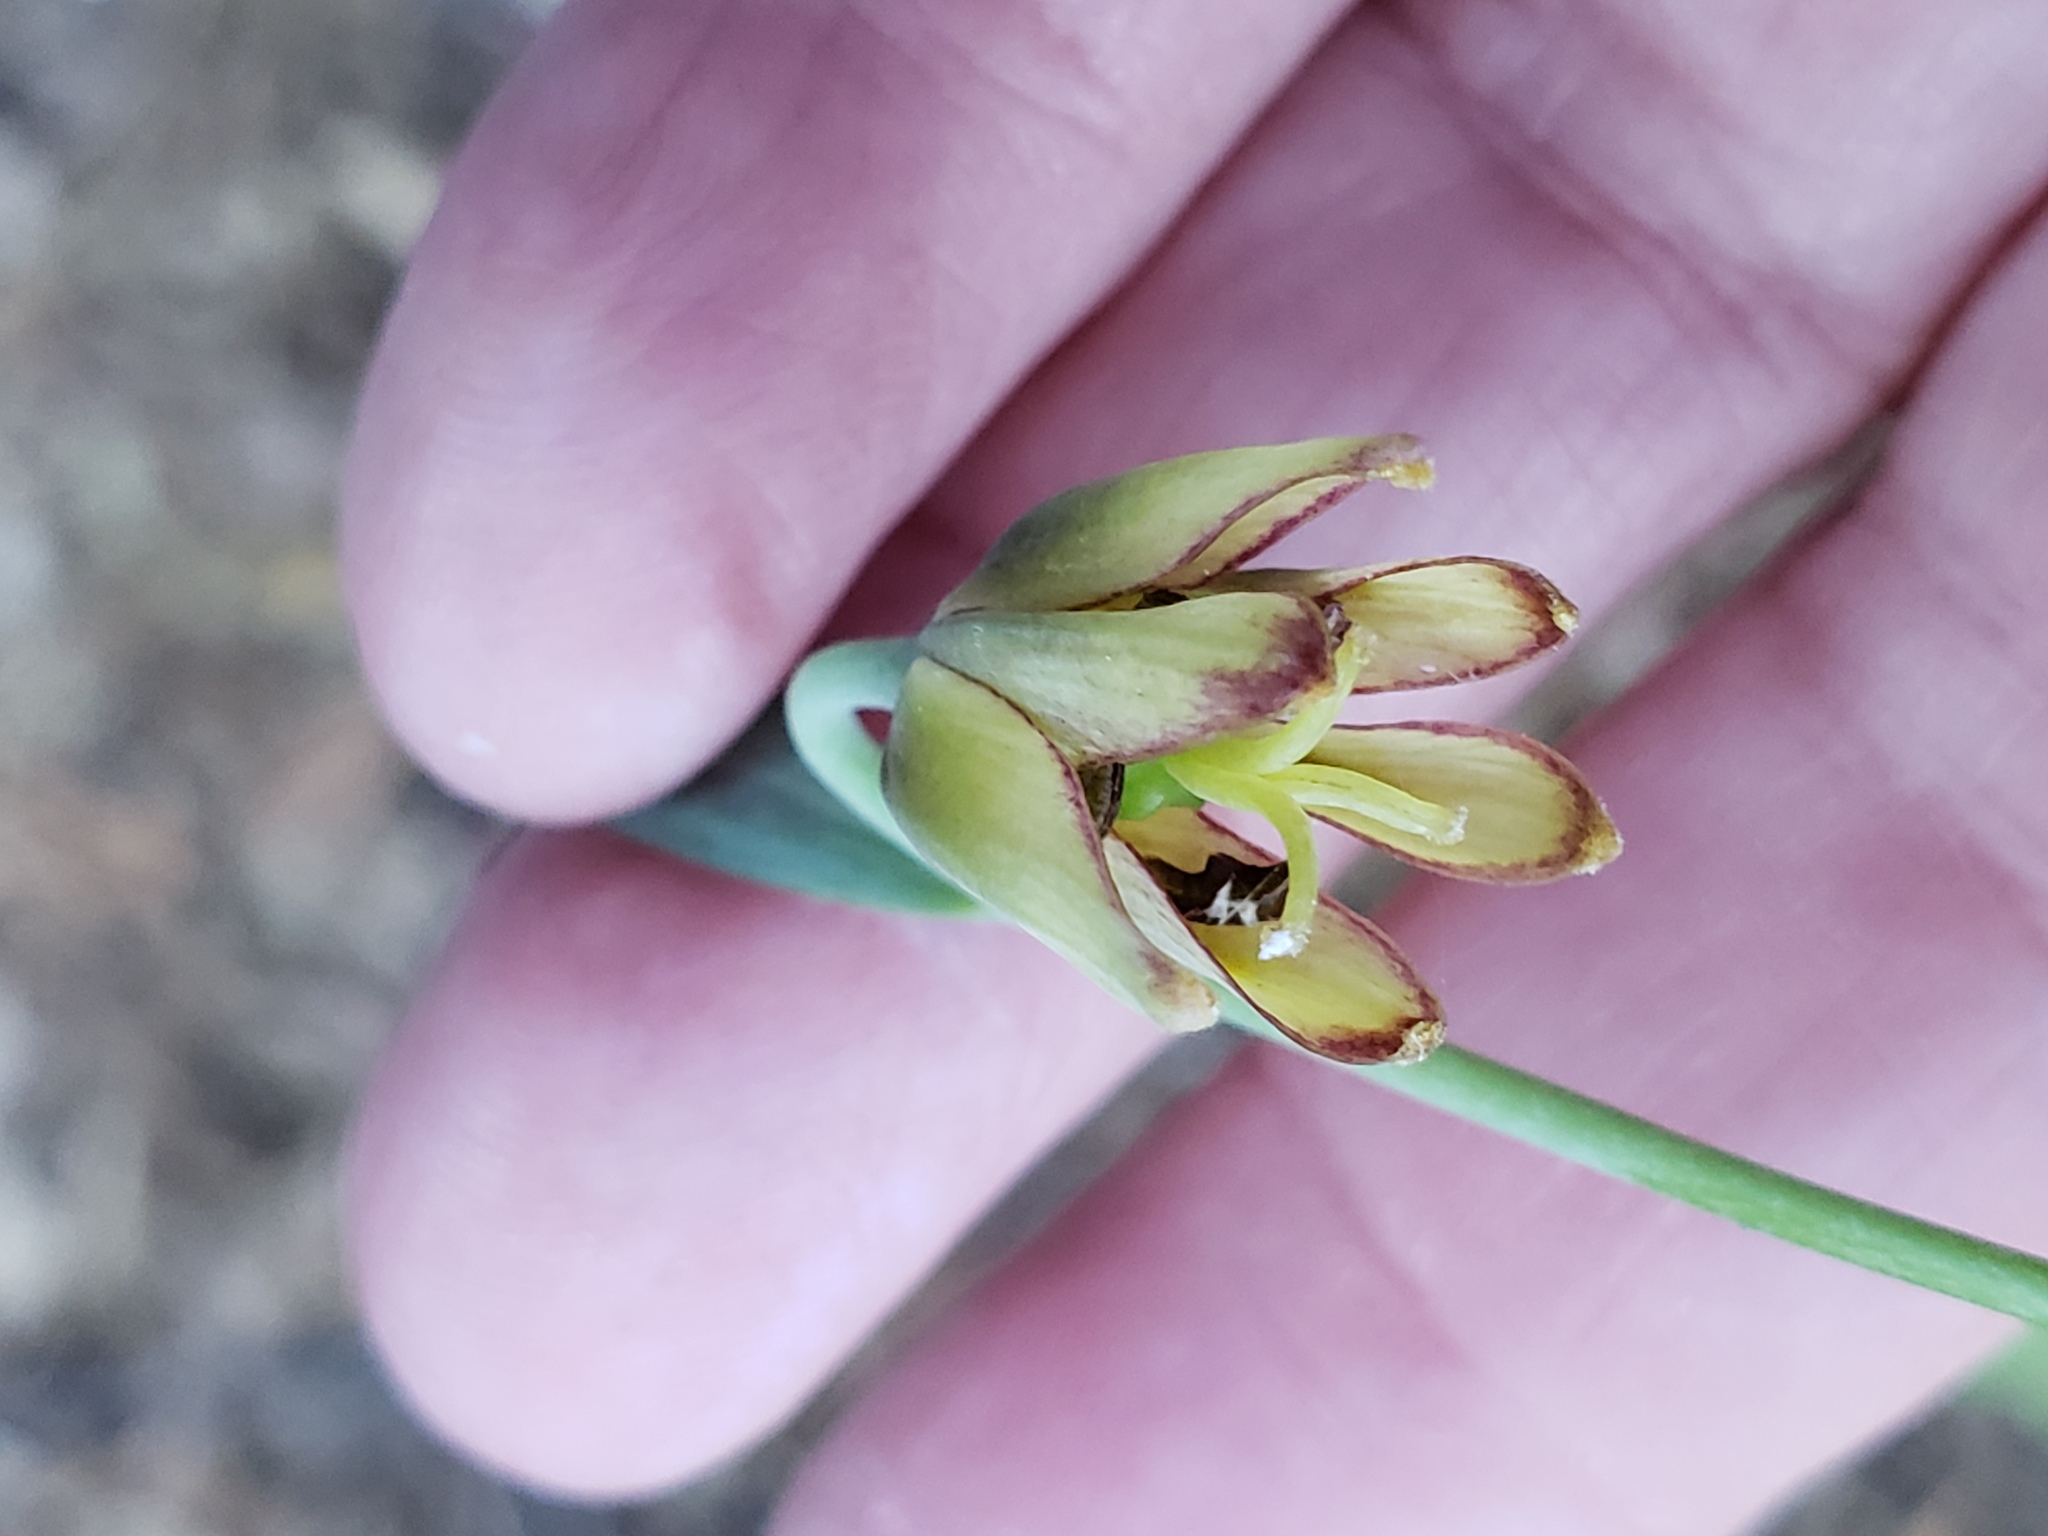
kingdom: Plantae
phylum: Tracheophyta
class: Liliopsida
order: Liliales
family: Liliaceae
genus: Fritillaria
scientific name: Fritillaria micrantha
